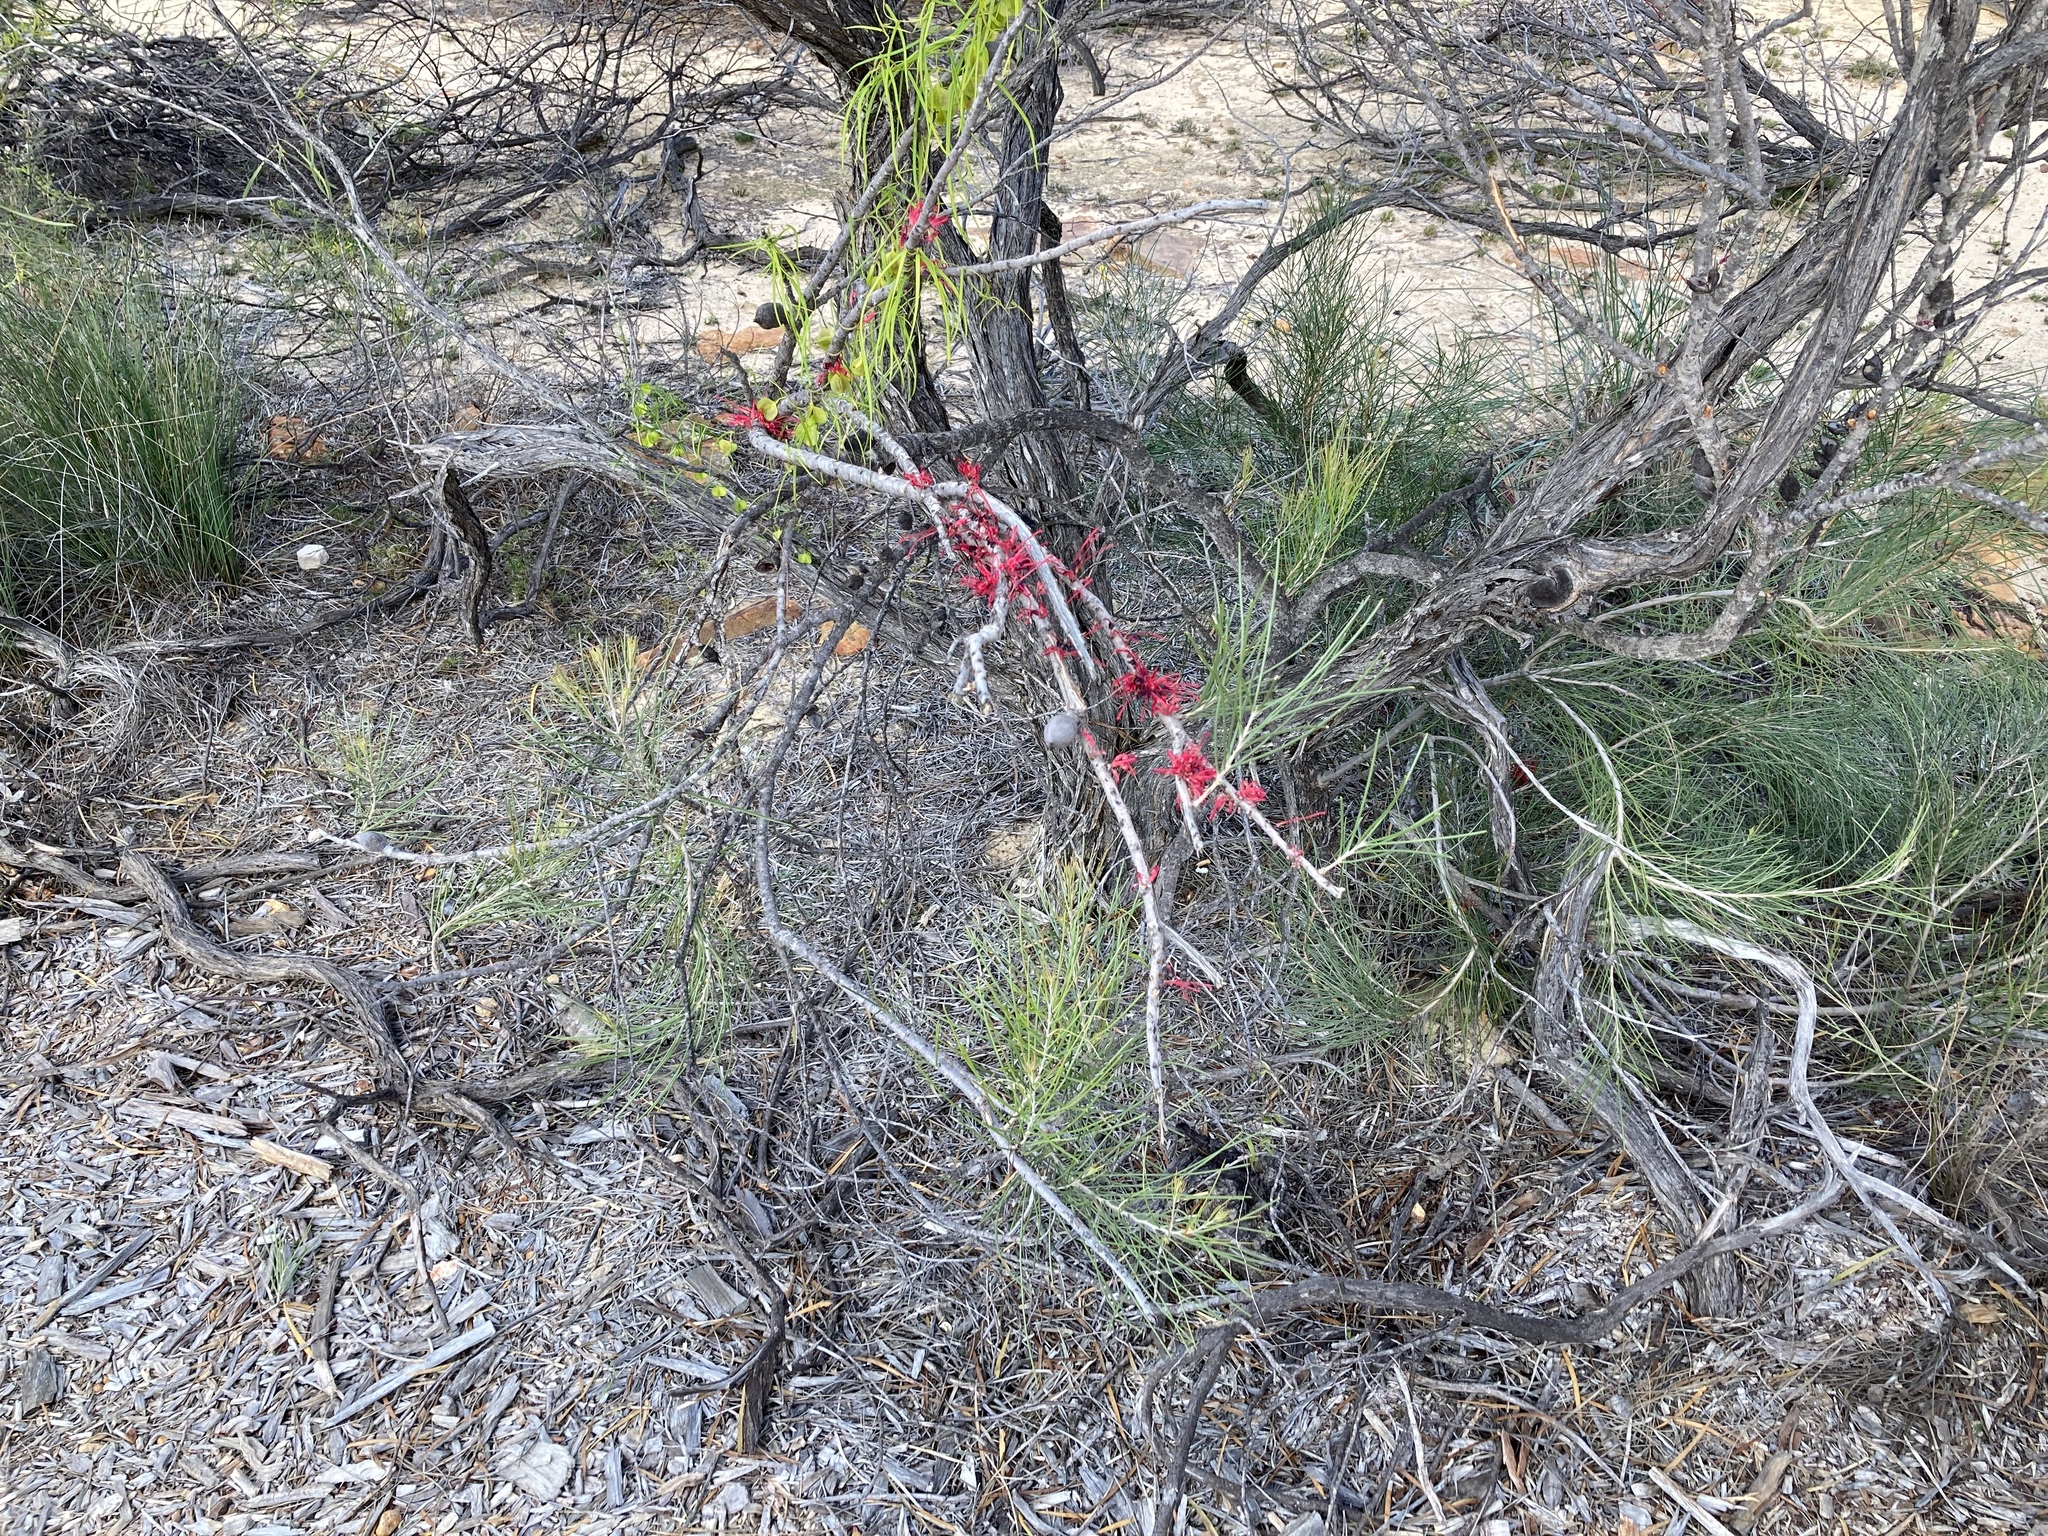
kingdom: Plantae
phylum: Tracheophyta
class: Magnoliopsida
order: Proteales
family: Proteaceae
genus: Hakea
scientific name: Hakea orthorrhyncha
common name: Bird beak hakea
